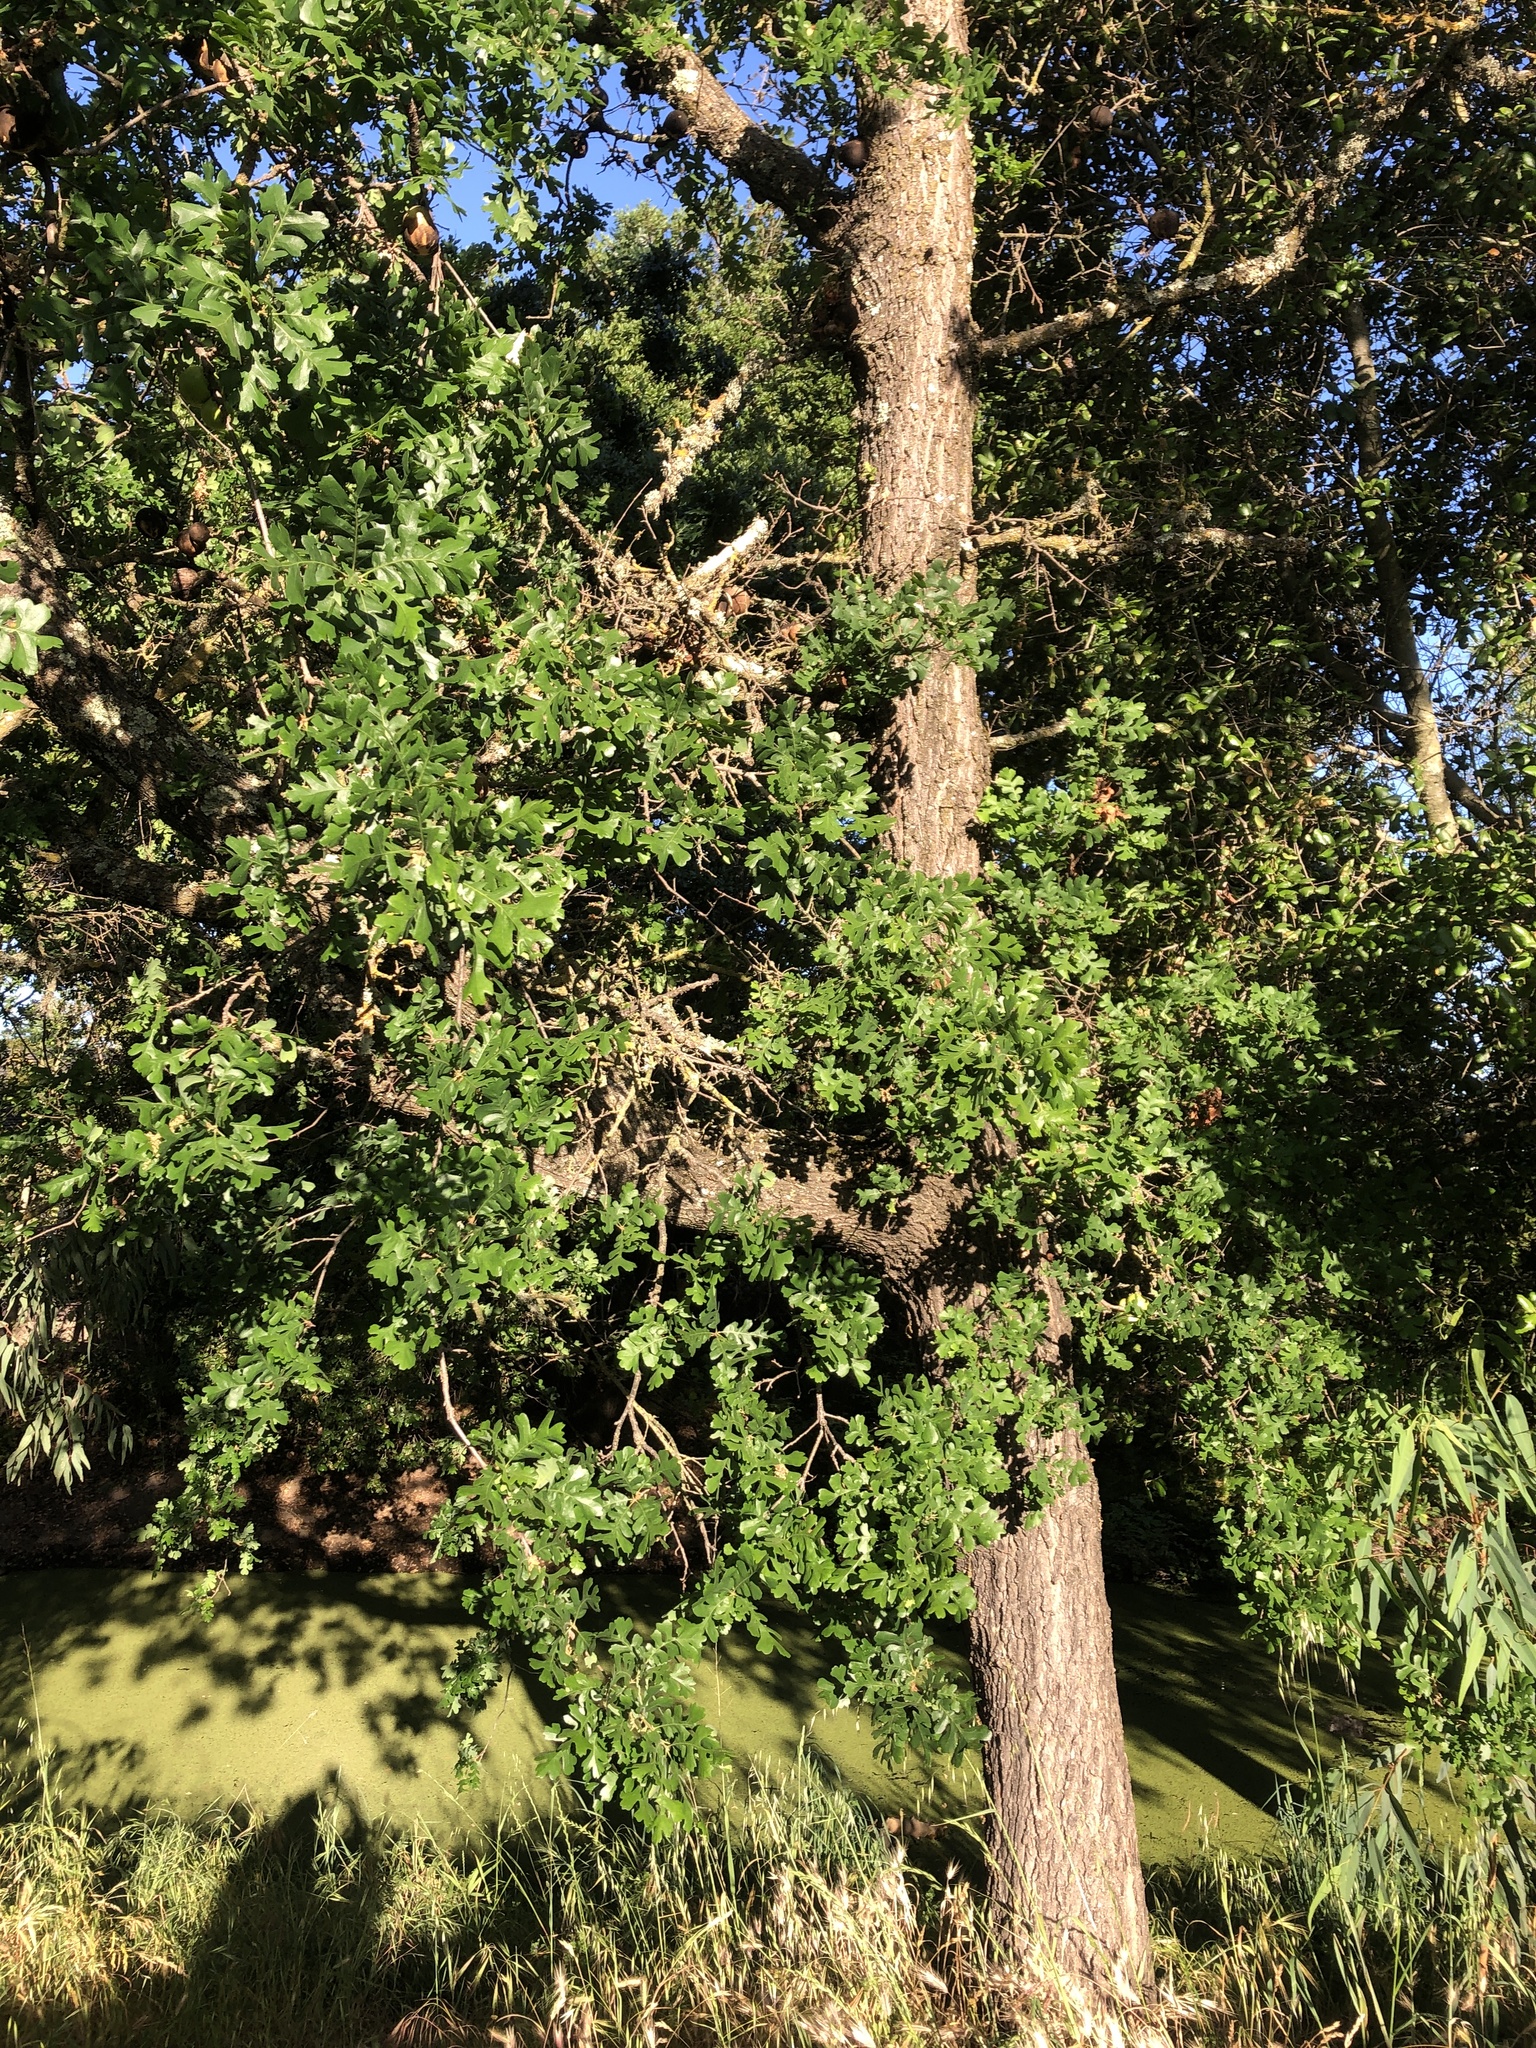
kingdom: Plantae
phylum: Tracheophyta
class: Magnoliopsida
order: Fagales
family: Fagaceae
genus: Quercus
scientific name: Quercus lobata
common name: Valley oak
